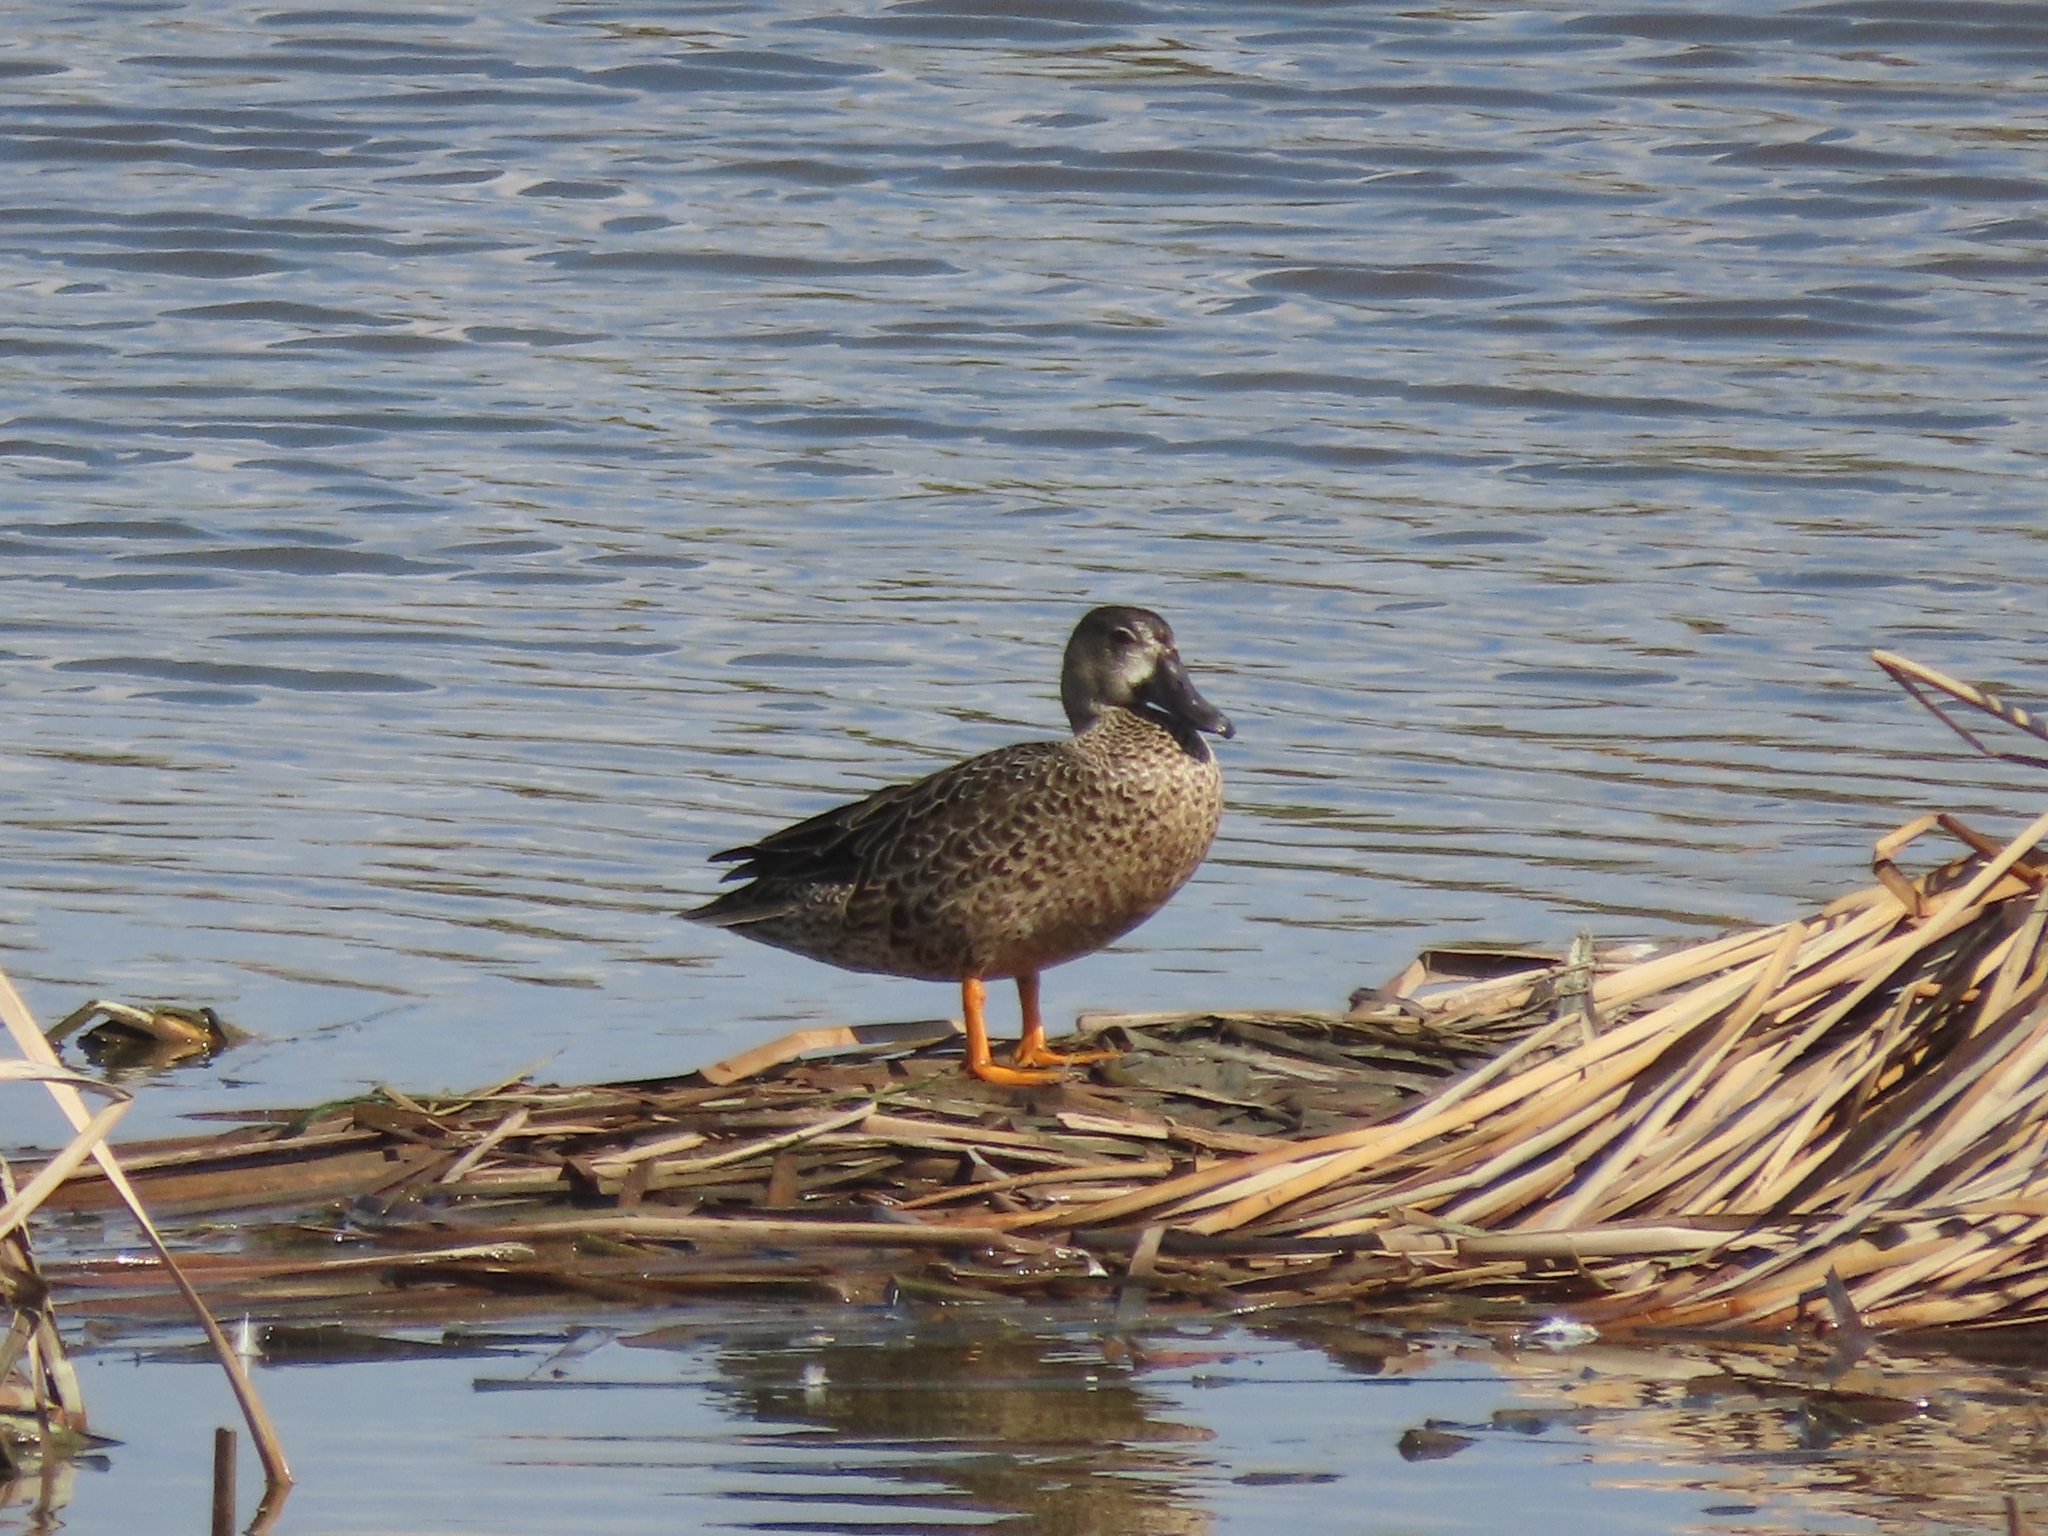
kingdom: Animalia
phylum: Chordata
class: Aves
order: Anseriformes
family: Anatidae
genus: Spatula
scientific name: Spatula discors
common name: Blue-winged teal
